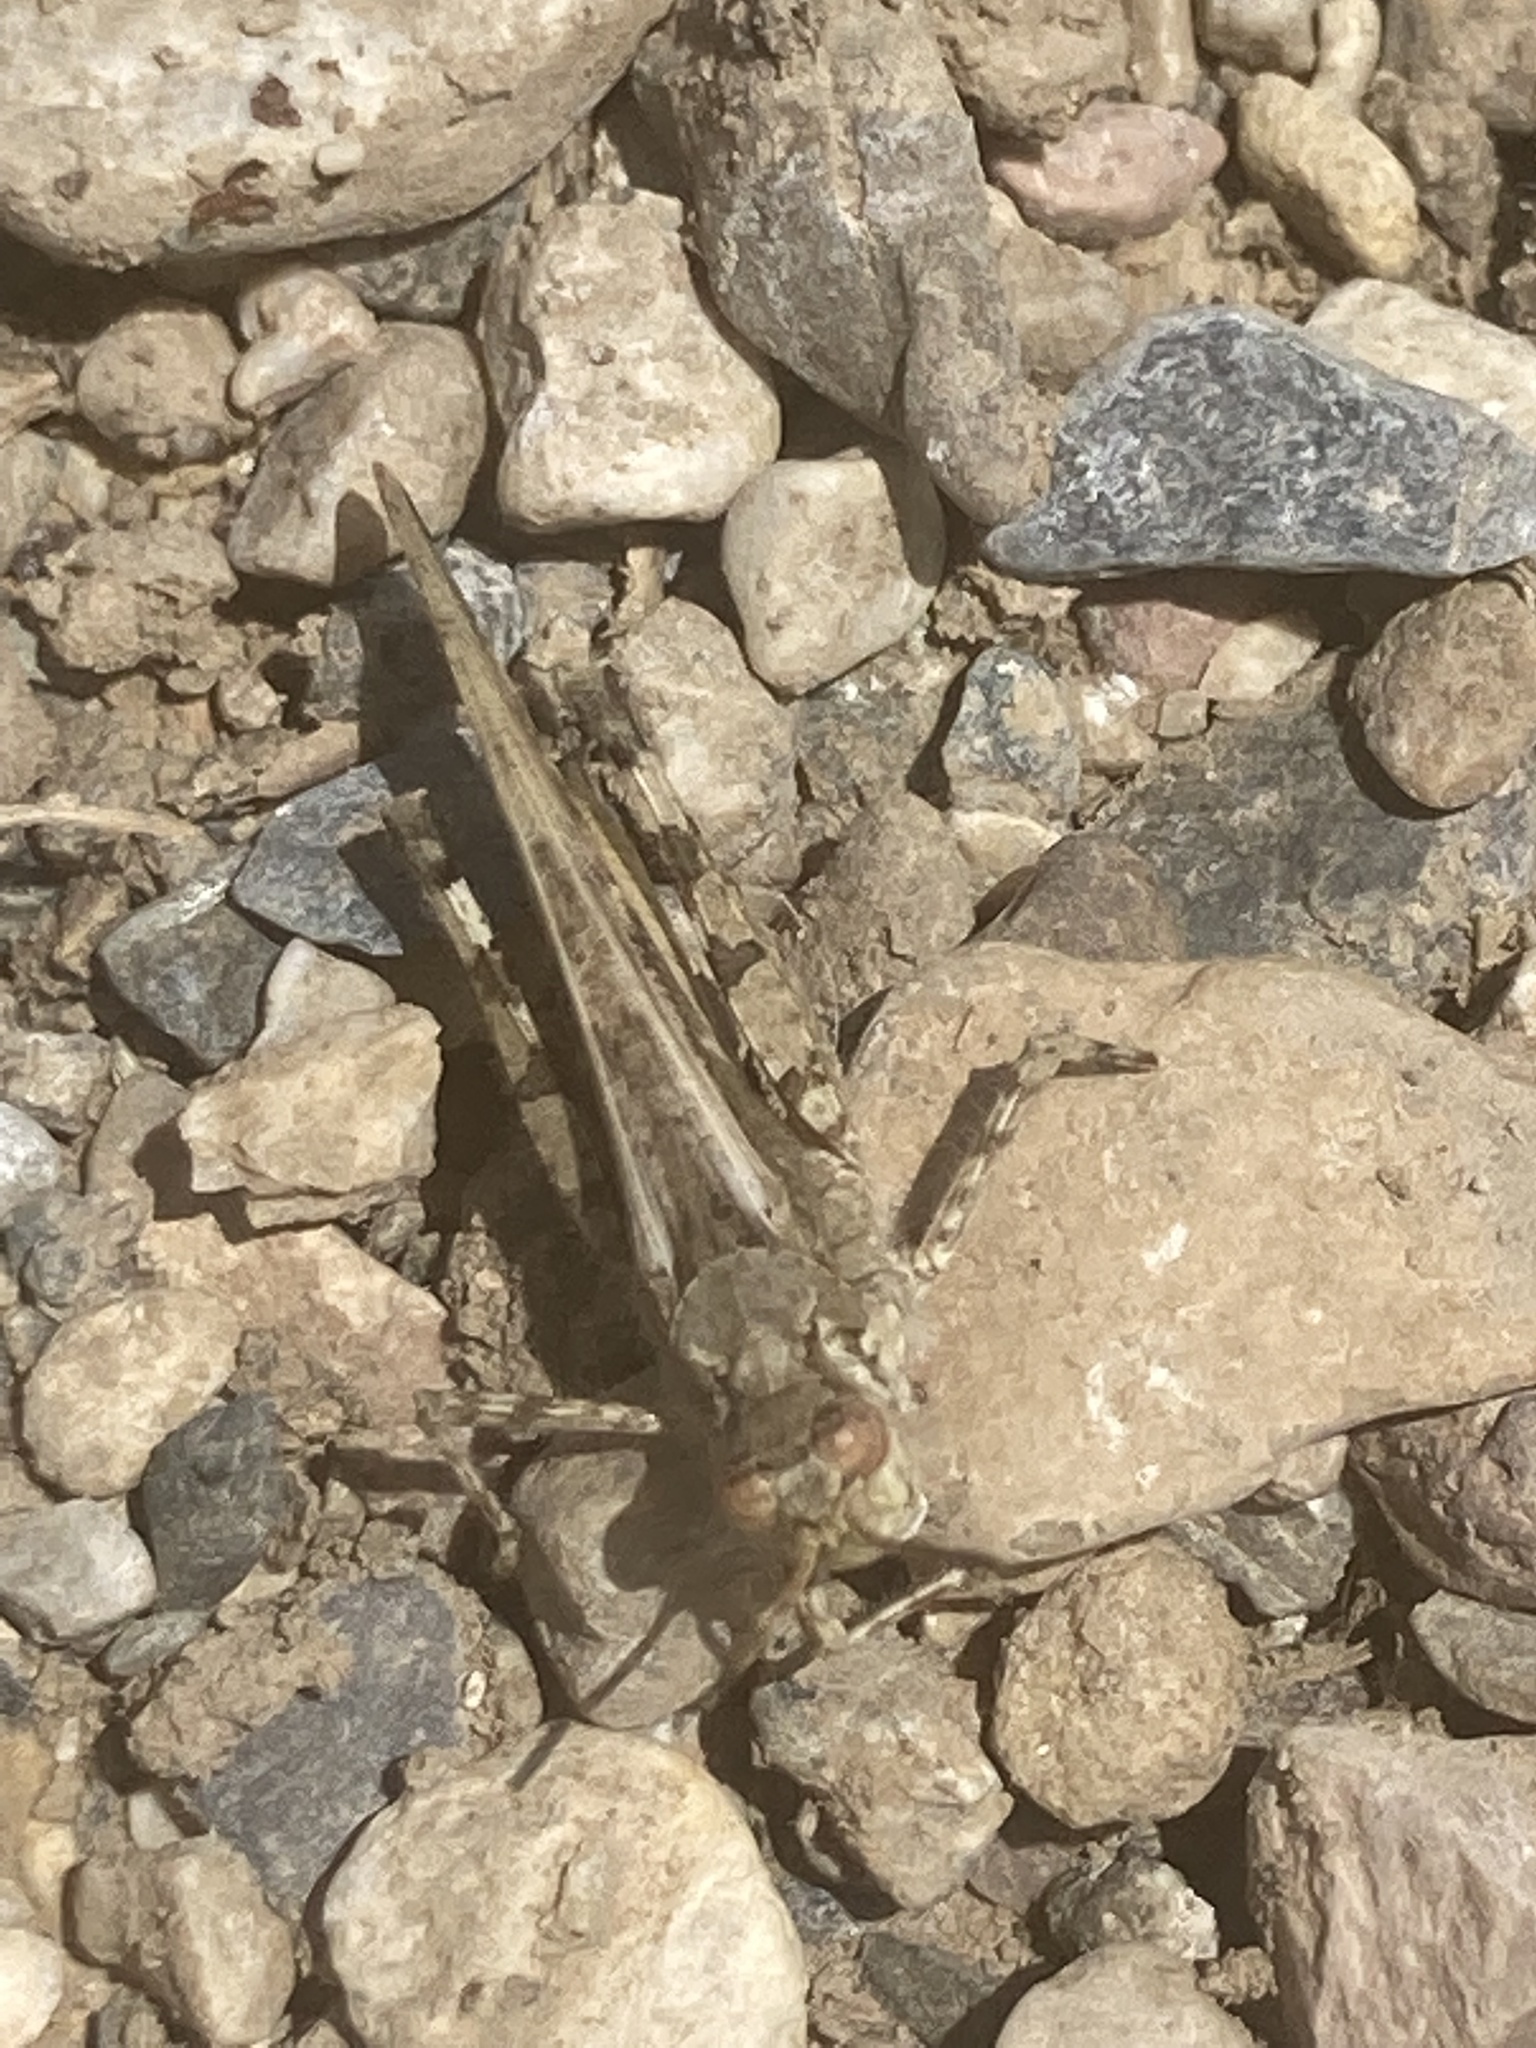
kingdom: Animalia
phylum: Arthropoda
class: Insecta
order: Orthoptera
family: Acrididae
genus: Acrotylus
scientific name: Acrotylus patruelis
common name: Slender burrowing grasshopper
